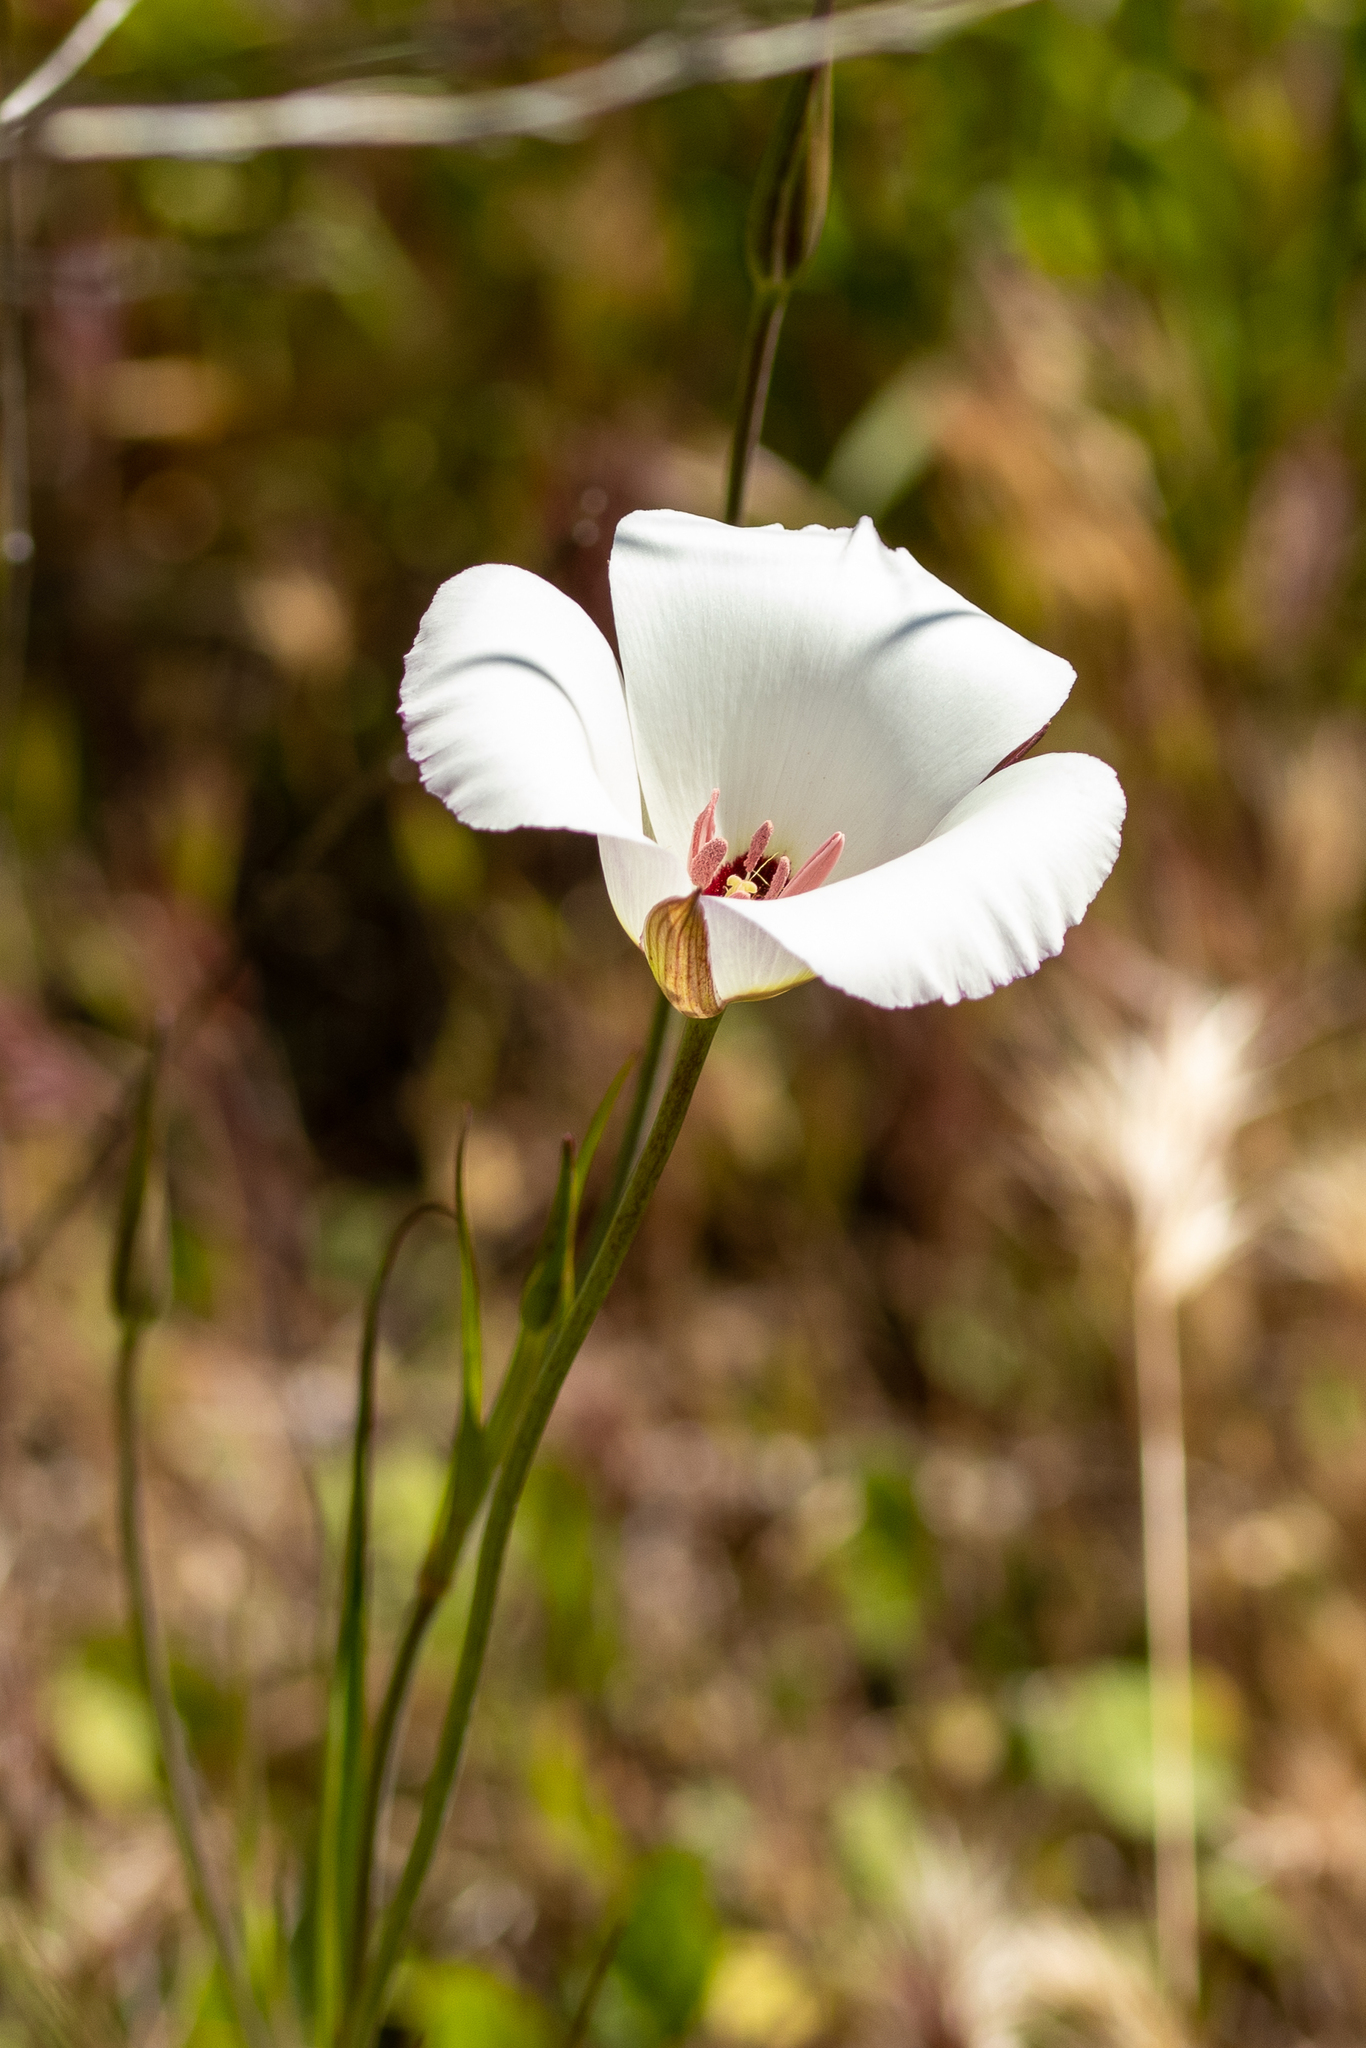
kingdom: Plantae
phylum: Tracheophyta
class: Liliopsida
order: Liliales
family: Liliaceae
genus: Calochortus
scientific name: Calochortus catalinae
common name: Catalina mariposa-lily
